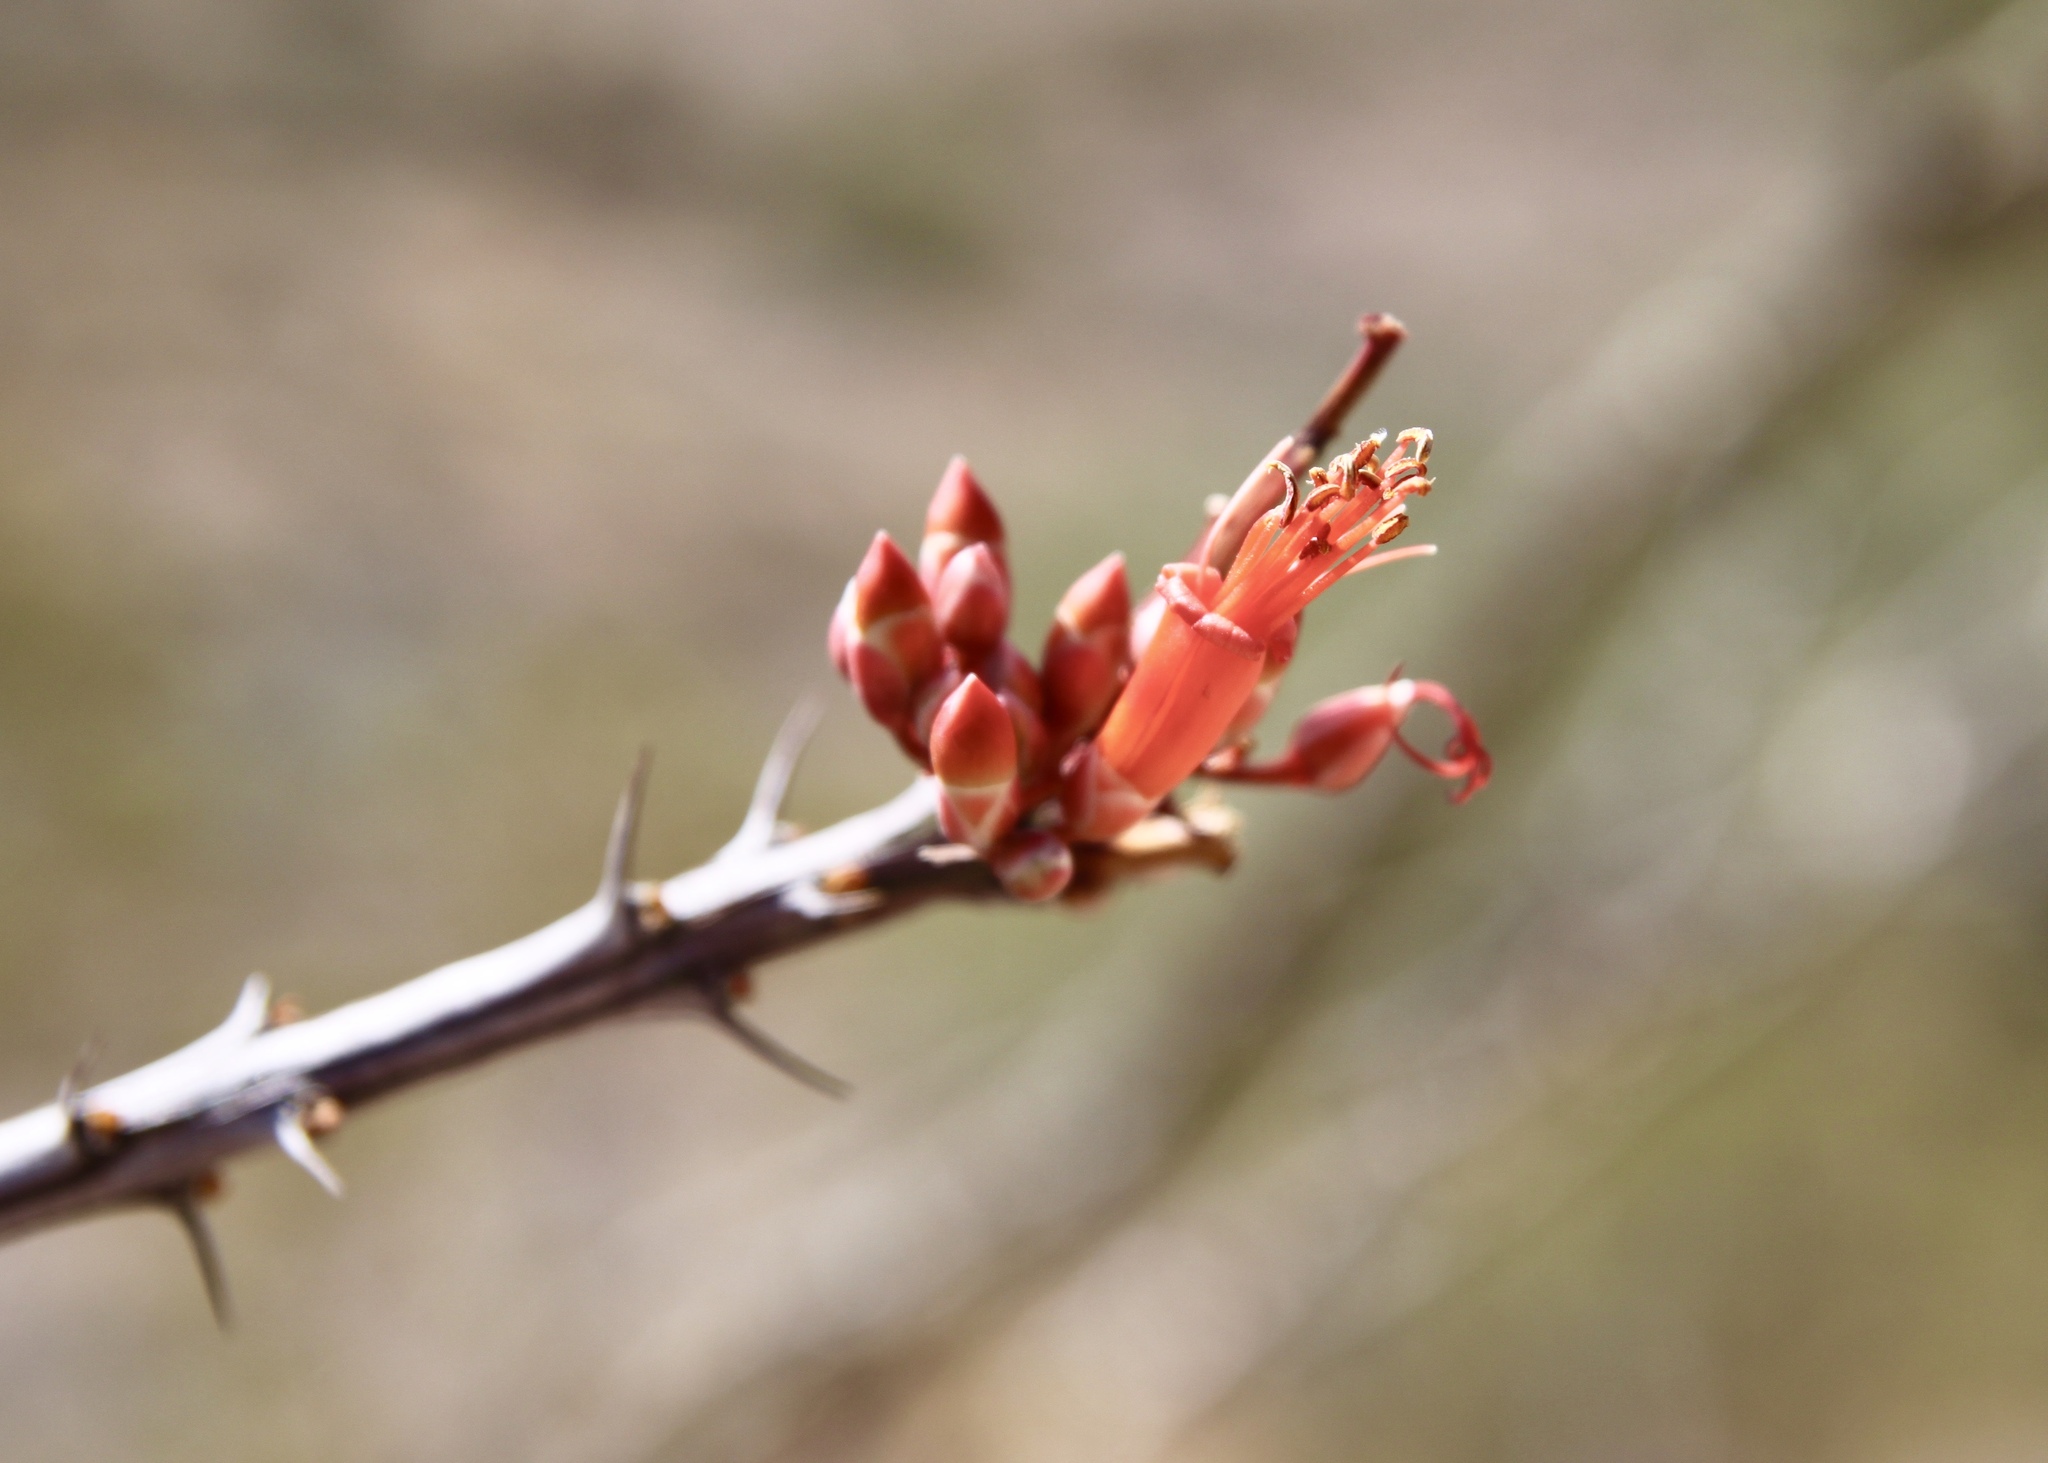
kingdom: Plantae
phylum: Tracheophyta
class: Magnoliopsida
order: Ericales
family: Fouquieriaceae
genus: Fouquieria
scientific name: Fouquieria splendens
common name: Vine-cactus
